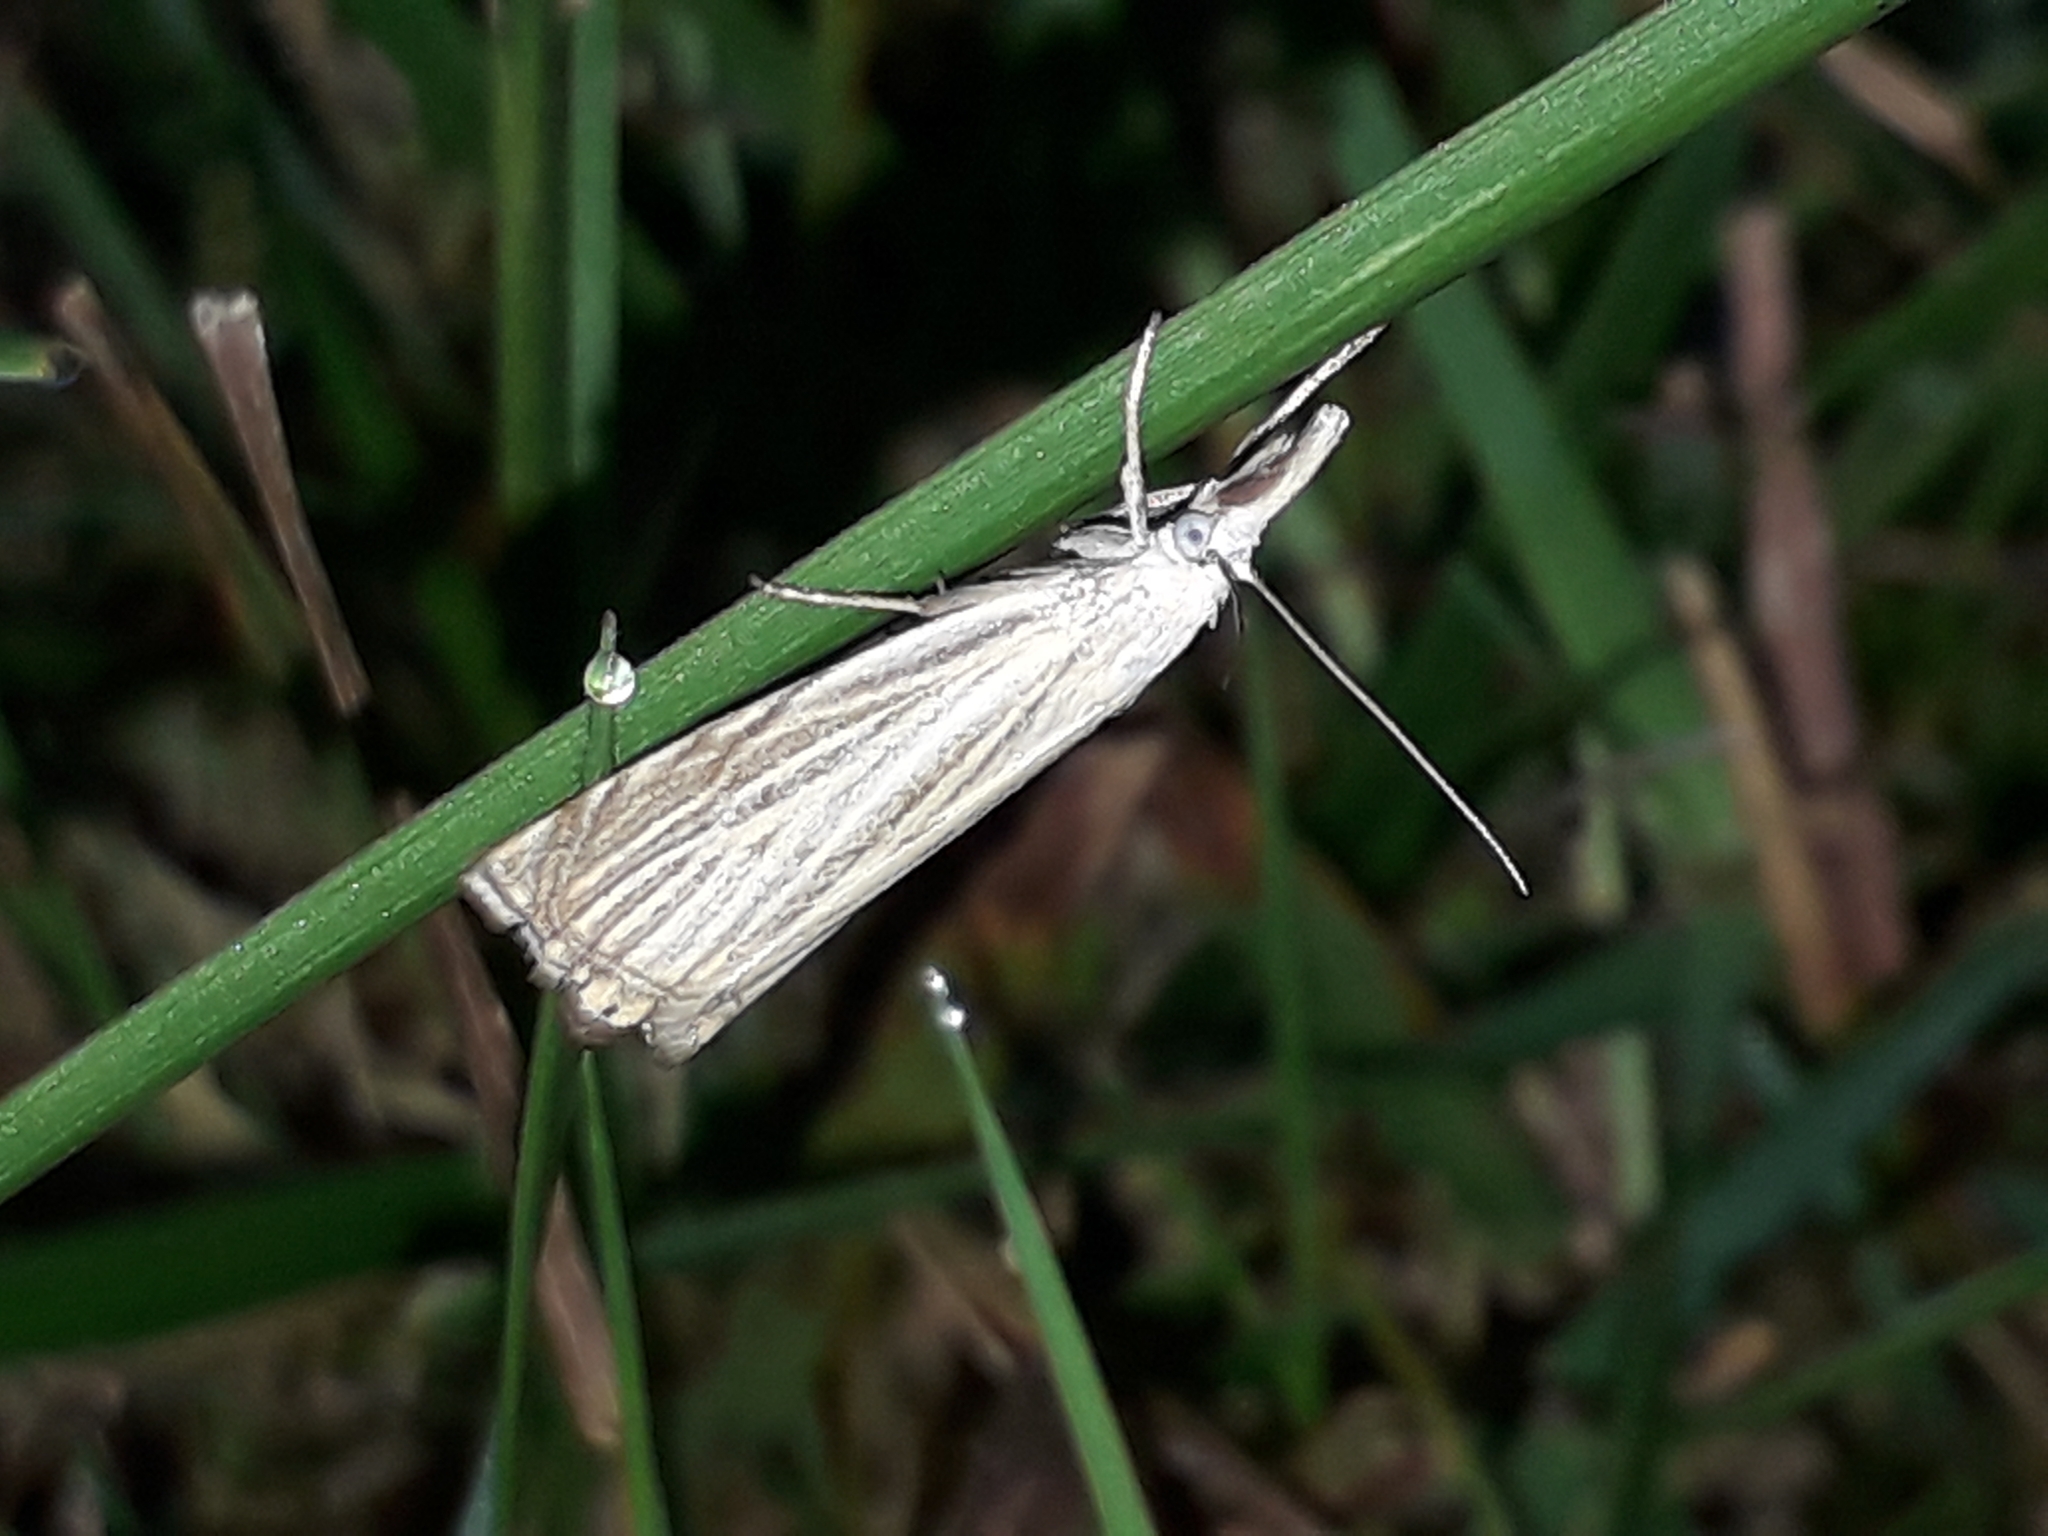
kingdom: Animalia
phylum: Arthropoda
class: Insecta
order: Lepidoptera
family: Crambidae
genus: Chrysoteuchia
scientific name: Chrysoteuchia culmella
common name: Garden grass-veneer
